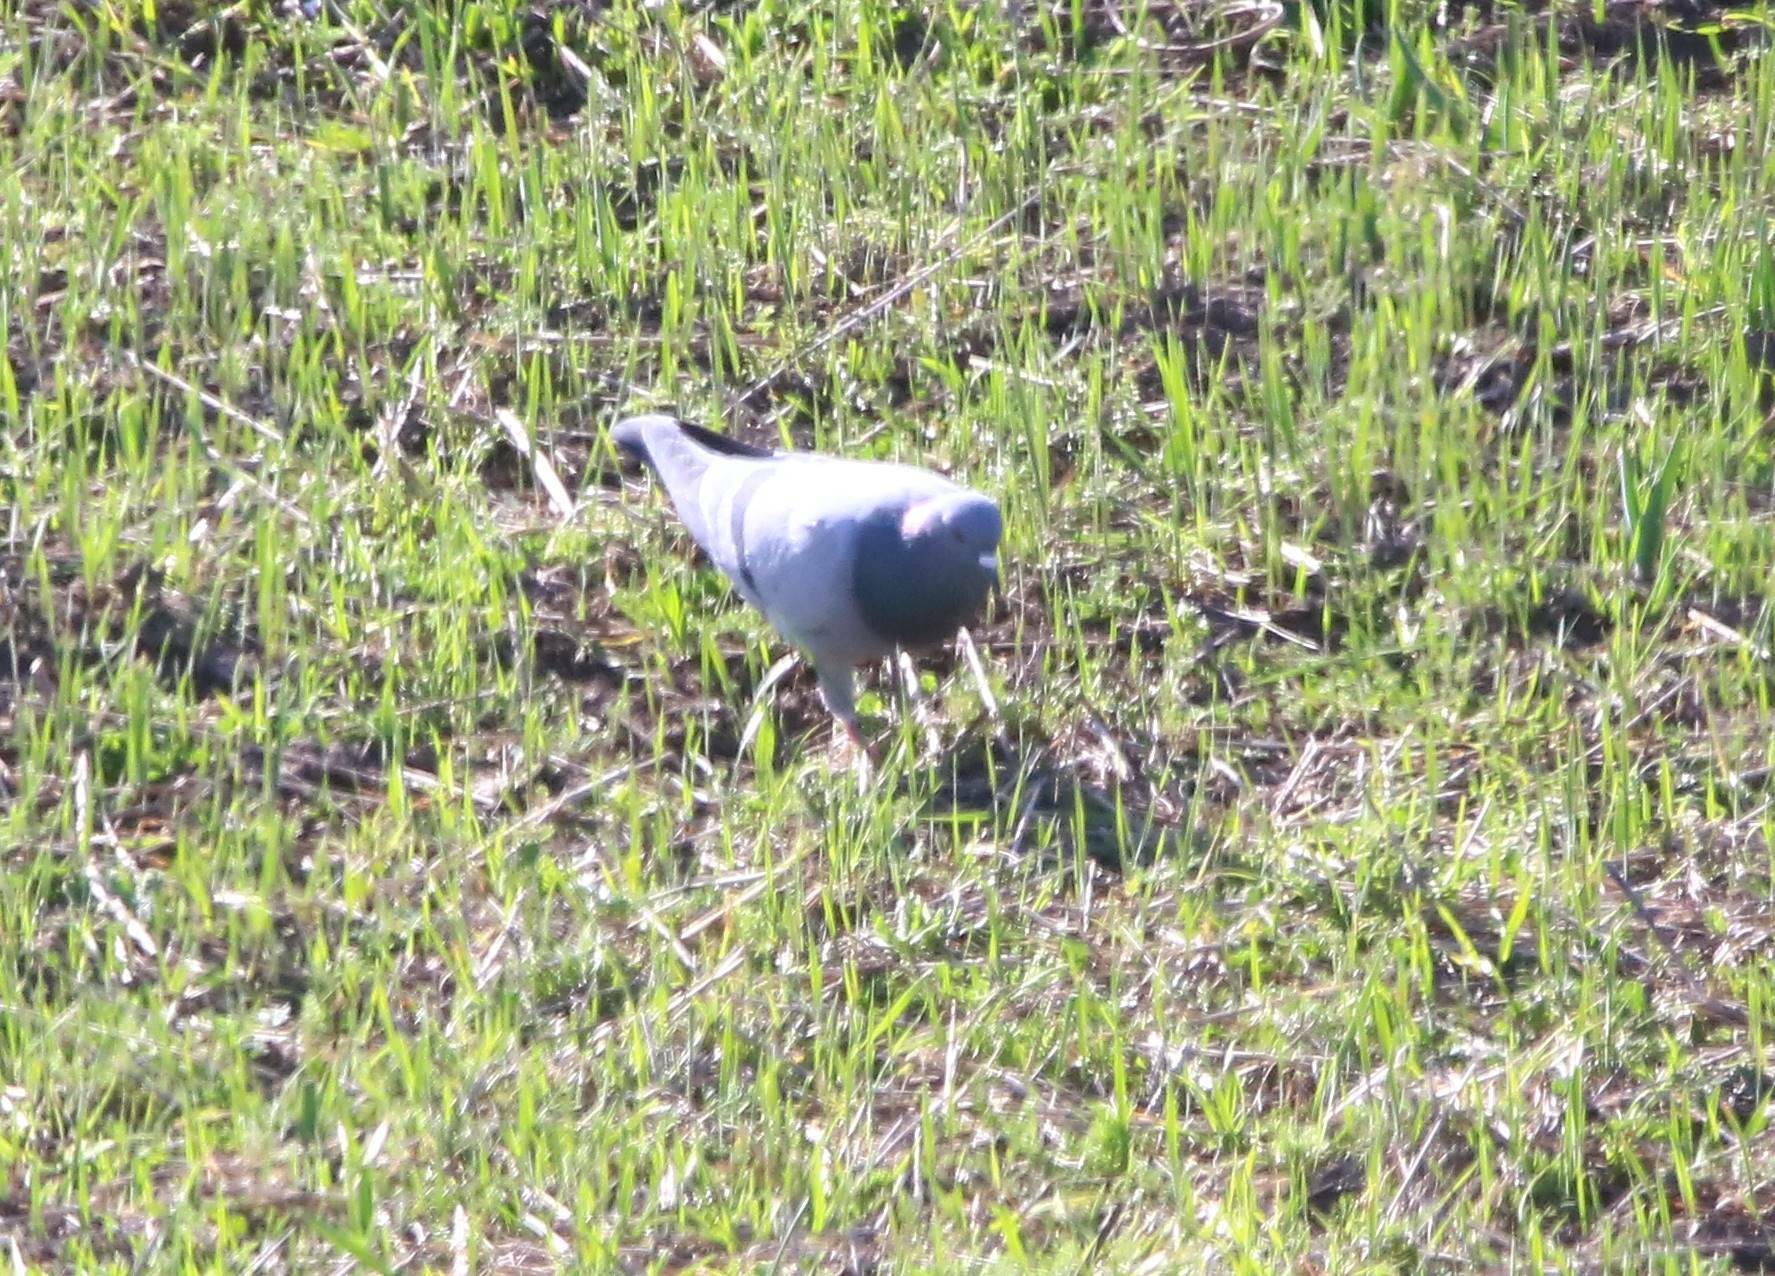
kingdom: Animalia
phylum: Chordata
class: Aves
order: Columbiformes
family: Columbidae
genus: Columba
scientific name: Columba livia
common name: Rock pigeon
